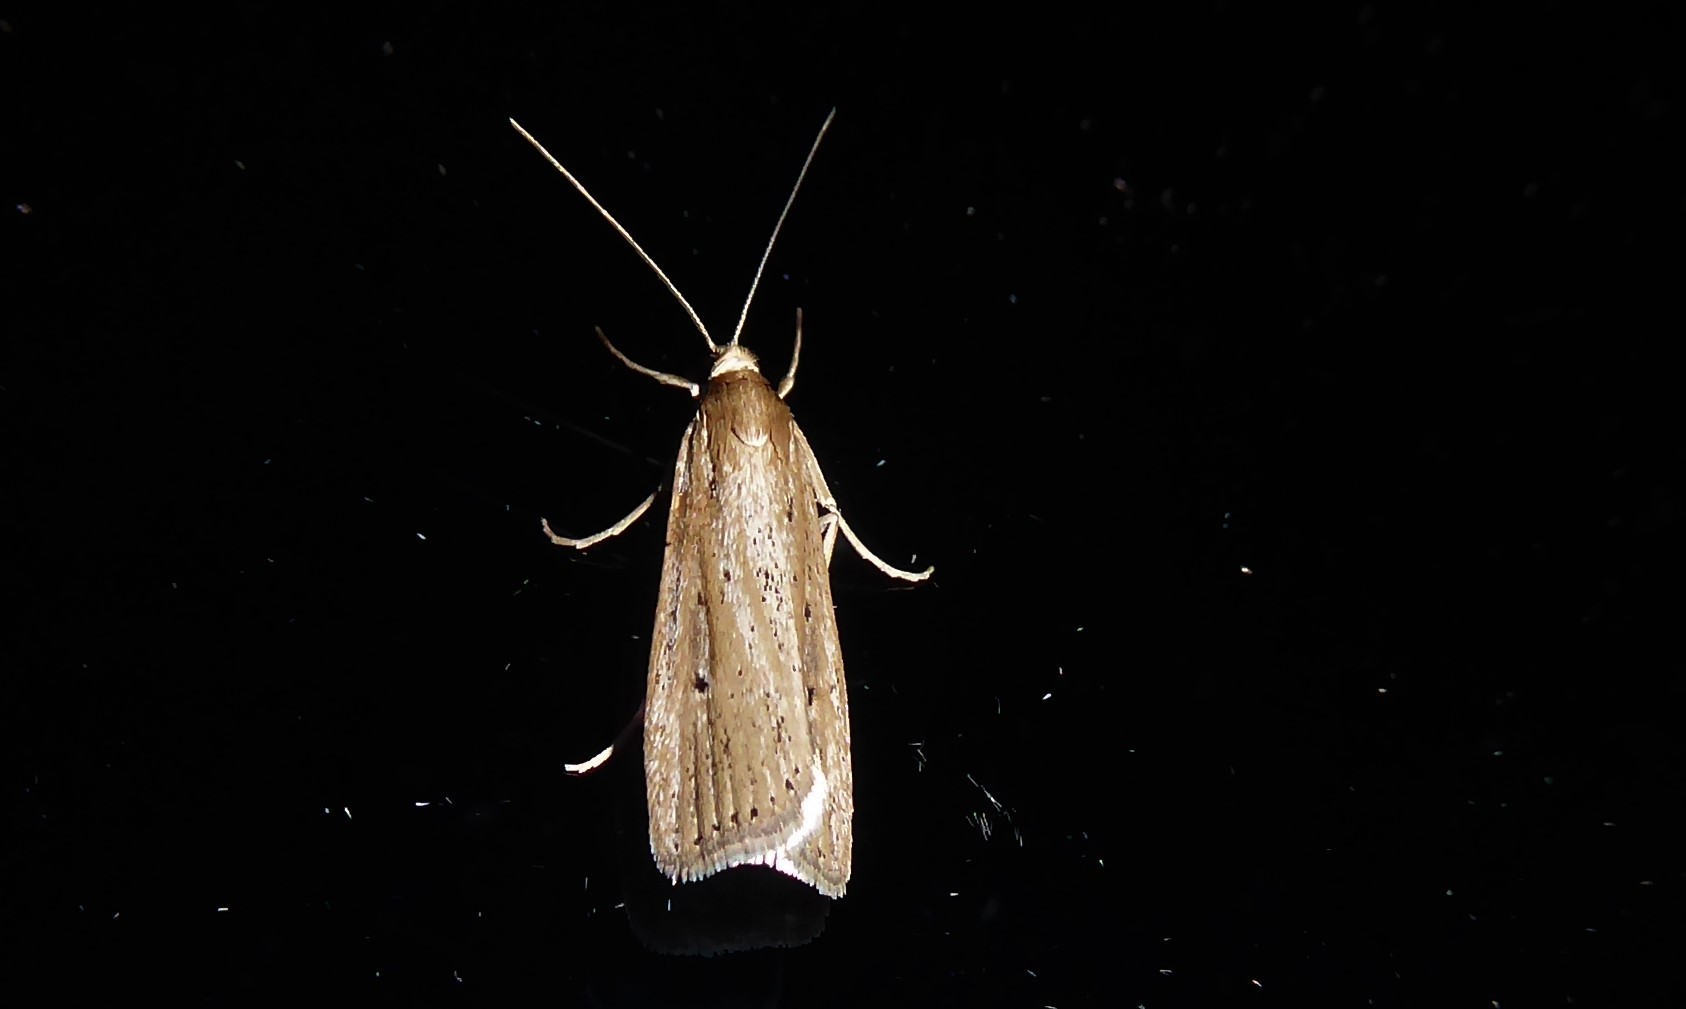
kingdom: Animalia
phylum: Arthropoda
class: Insecta
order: Lepidoptera
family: Crambidae
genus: Eudonia
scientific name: Eudonia sabulosella
